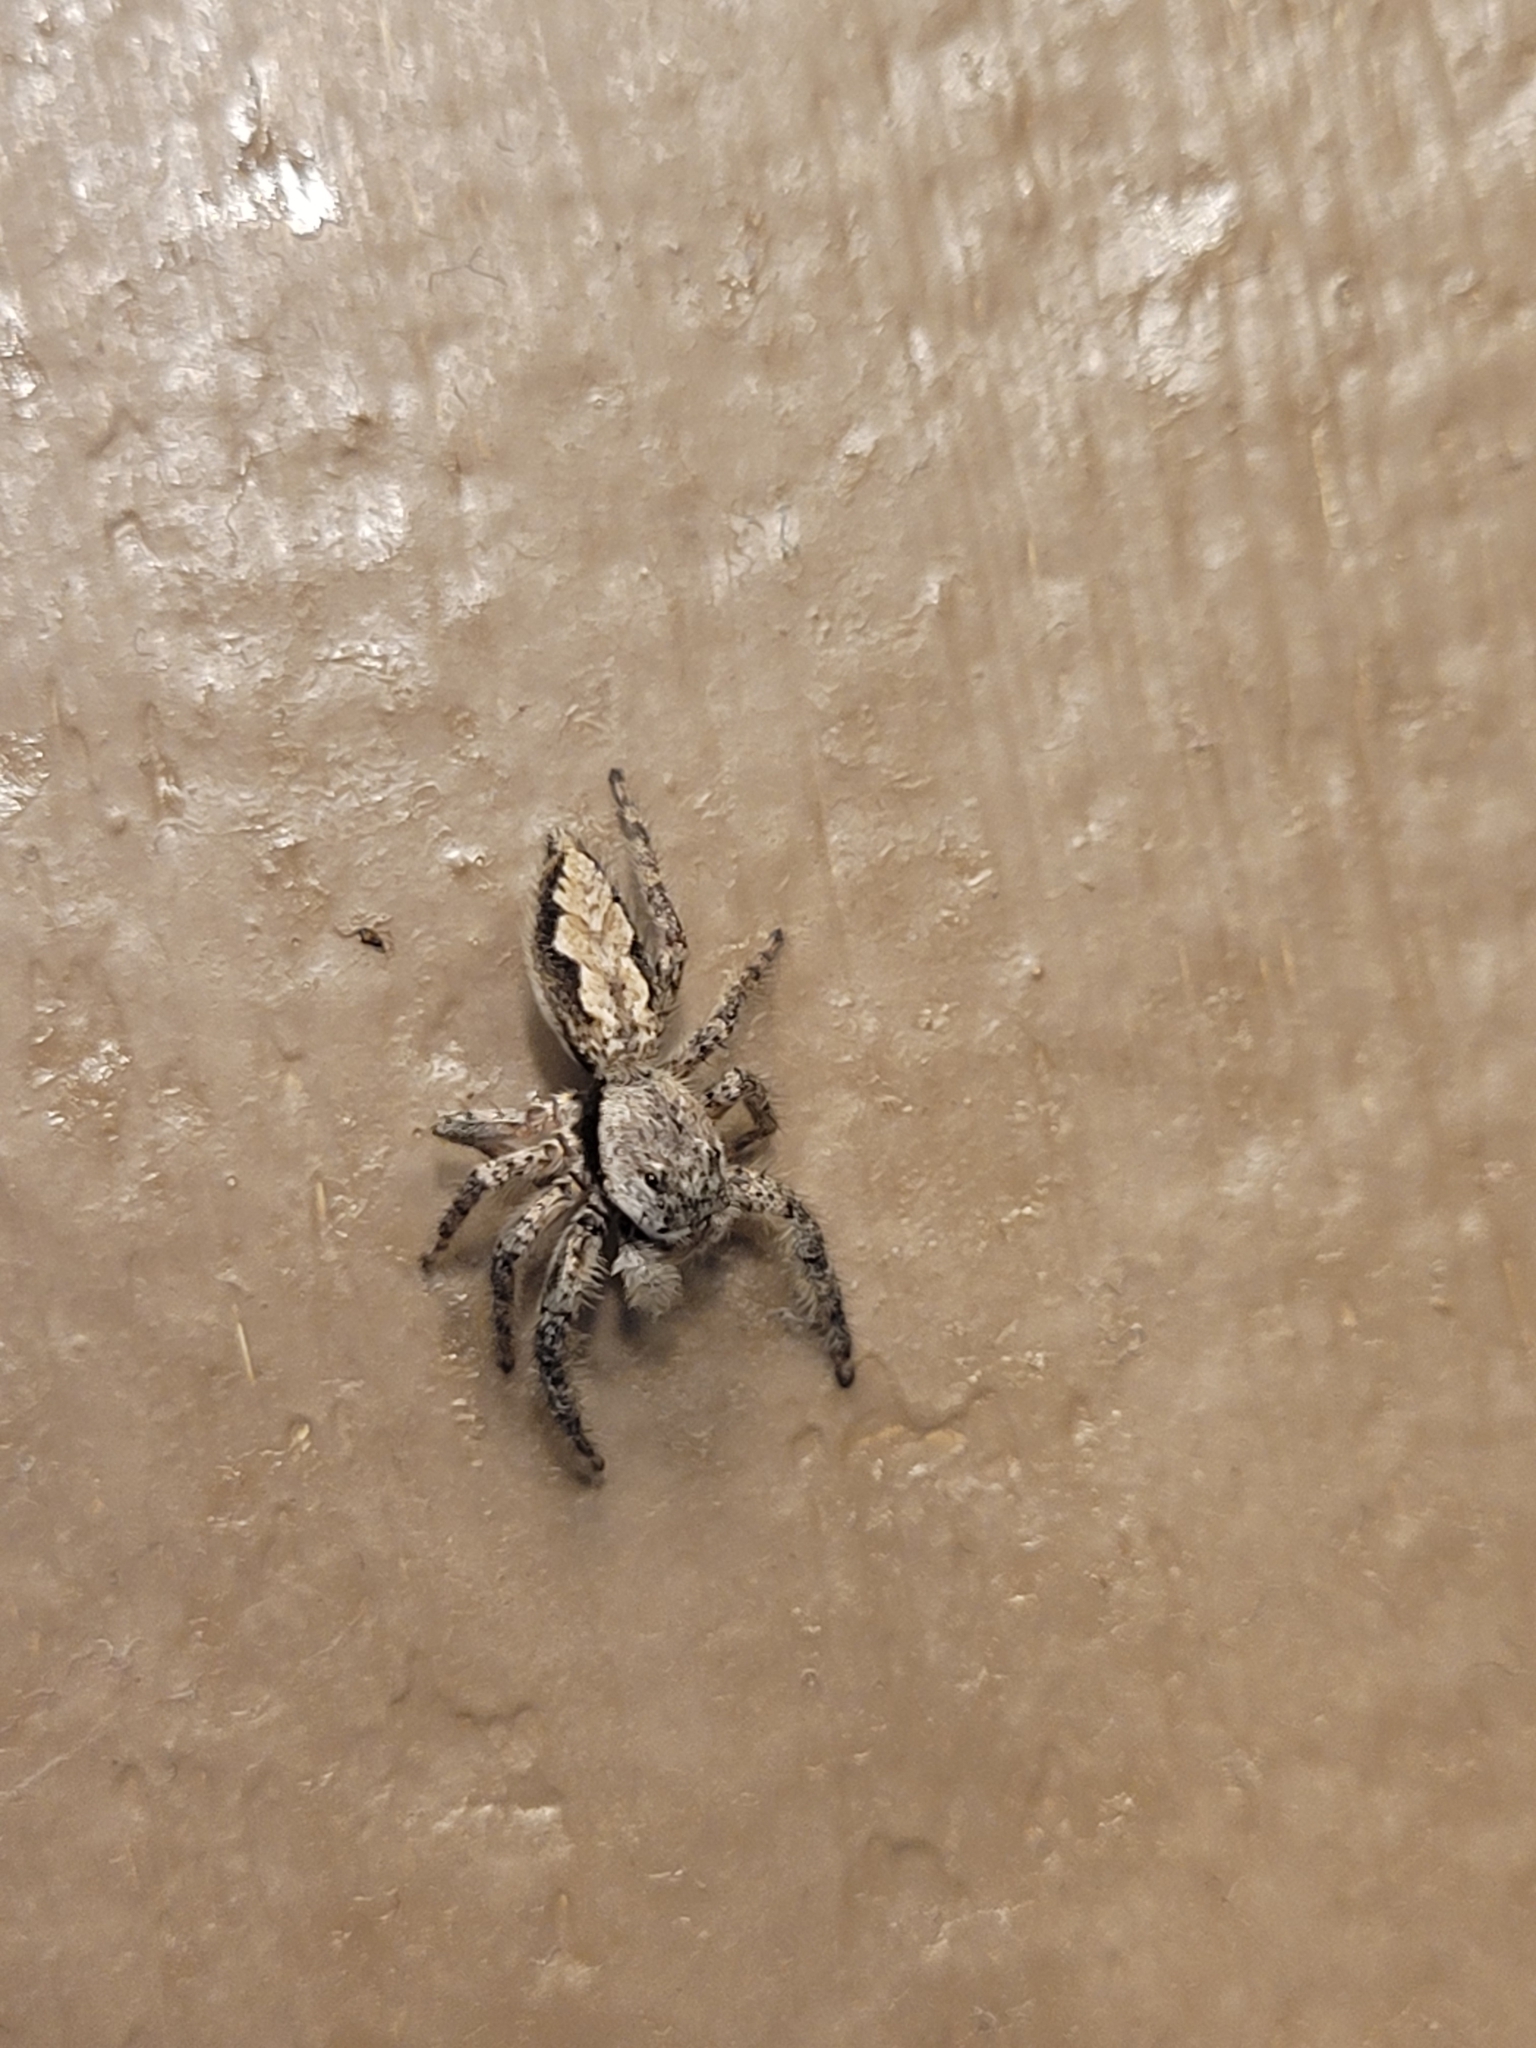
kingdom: Animalia
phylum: Arthropoda
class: Arachnida
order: Araneae
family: Salticidae
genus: Platycryptus
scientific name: Platycryptus undatus
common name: Tan jumping spider
